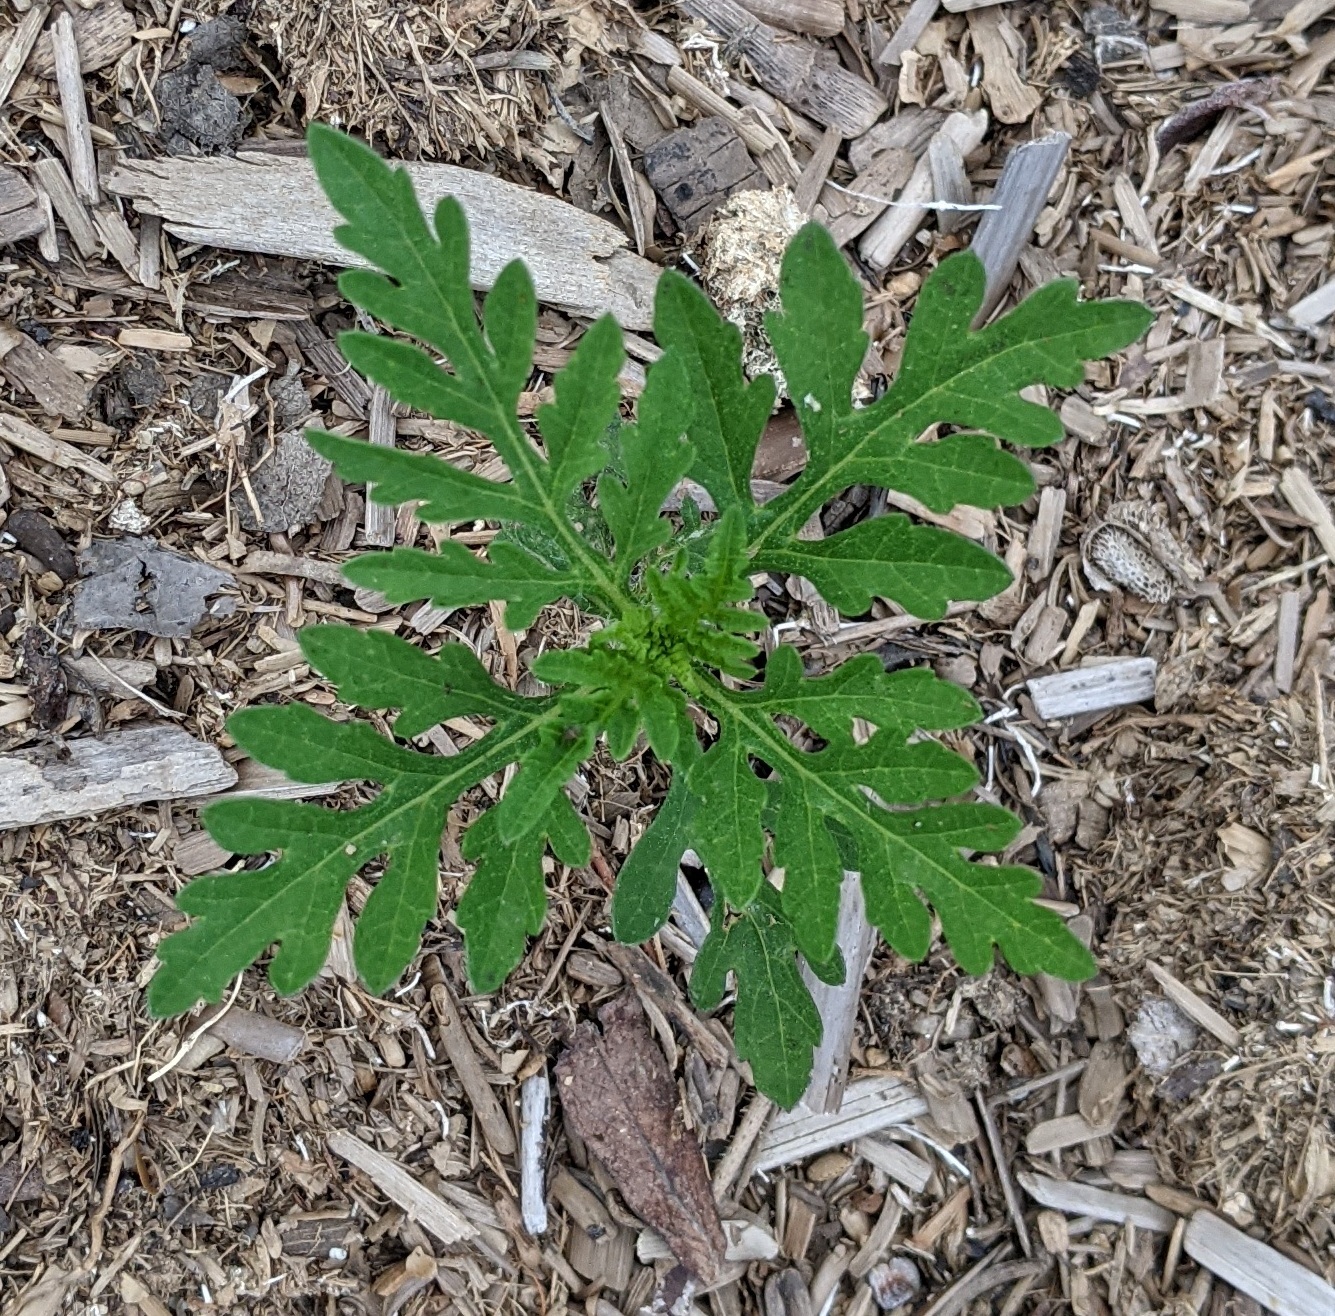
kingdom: Plantae
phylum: Tracheophyta
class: Magnoliopsida
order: Asterales
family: Asteraceae
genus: Ambrosia
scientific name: Ambrosia artemisiifolia
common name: Annual ragweed
